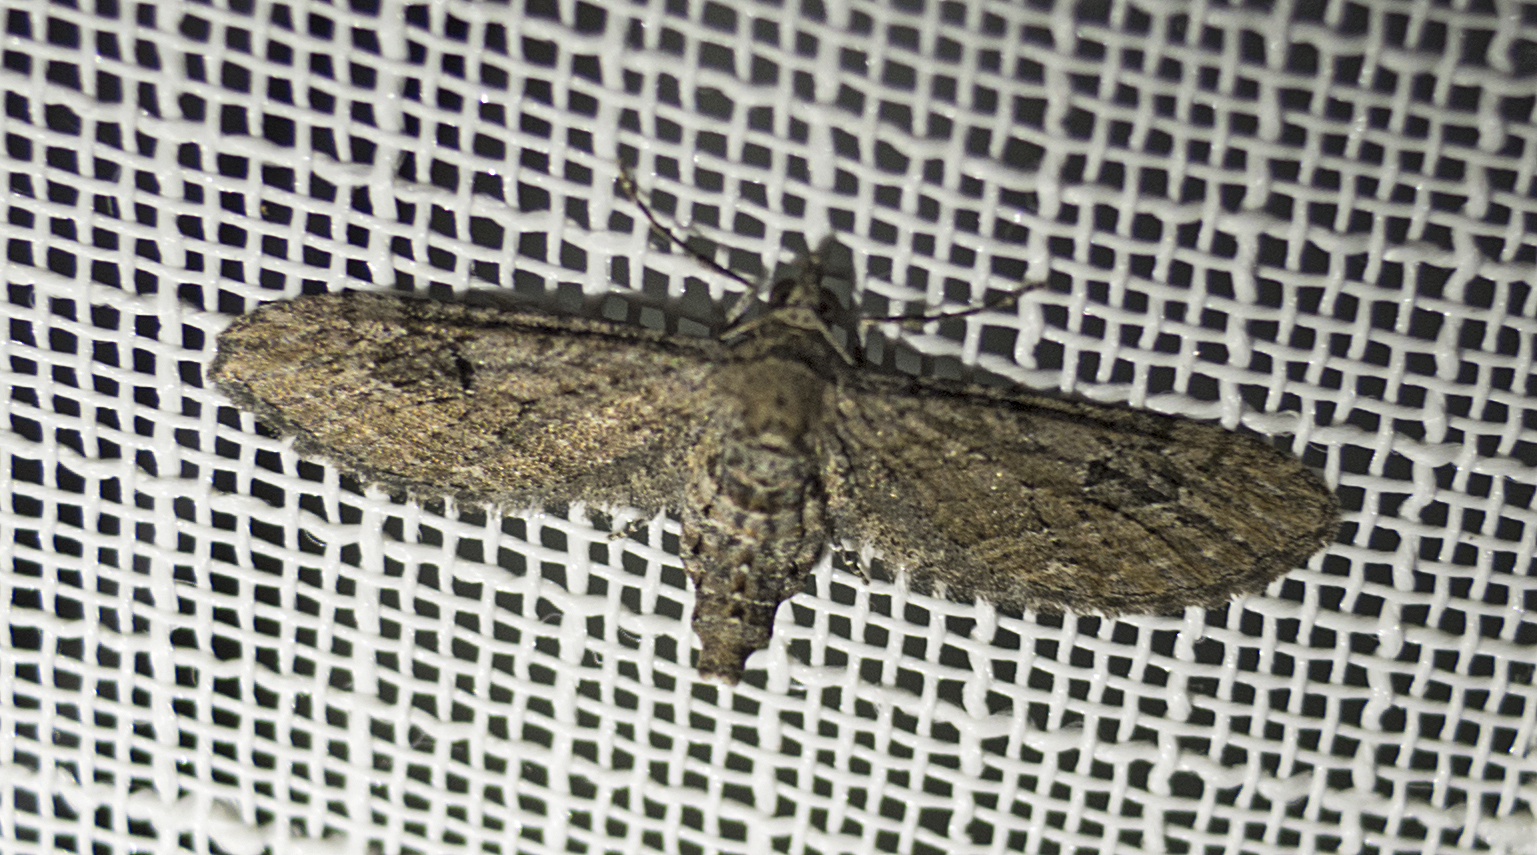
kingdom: Animalia
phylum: Arthropoda
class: Insecta
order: Lepidoptera
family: Geometridae
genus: Eupithecia
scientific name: Eupithecia innotata
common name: Angle-barred pug
